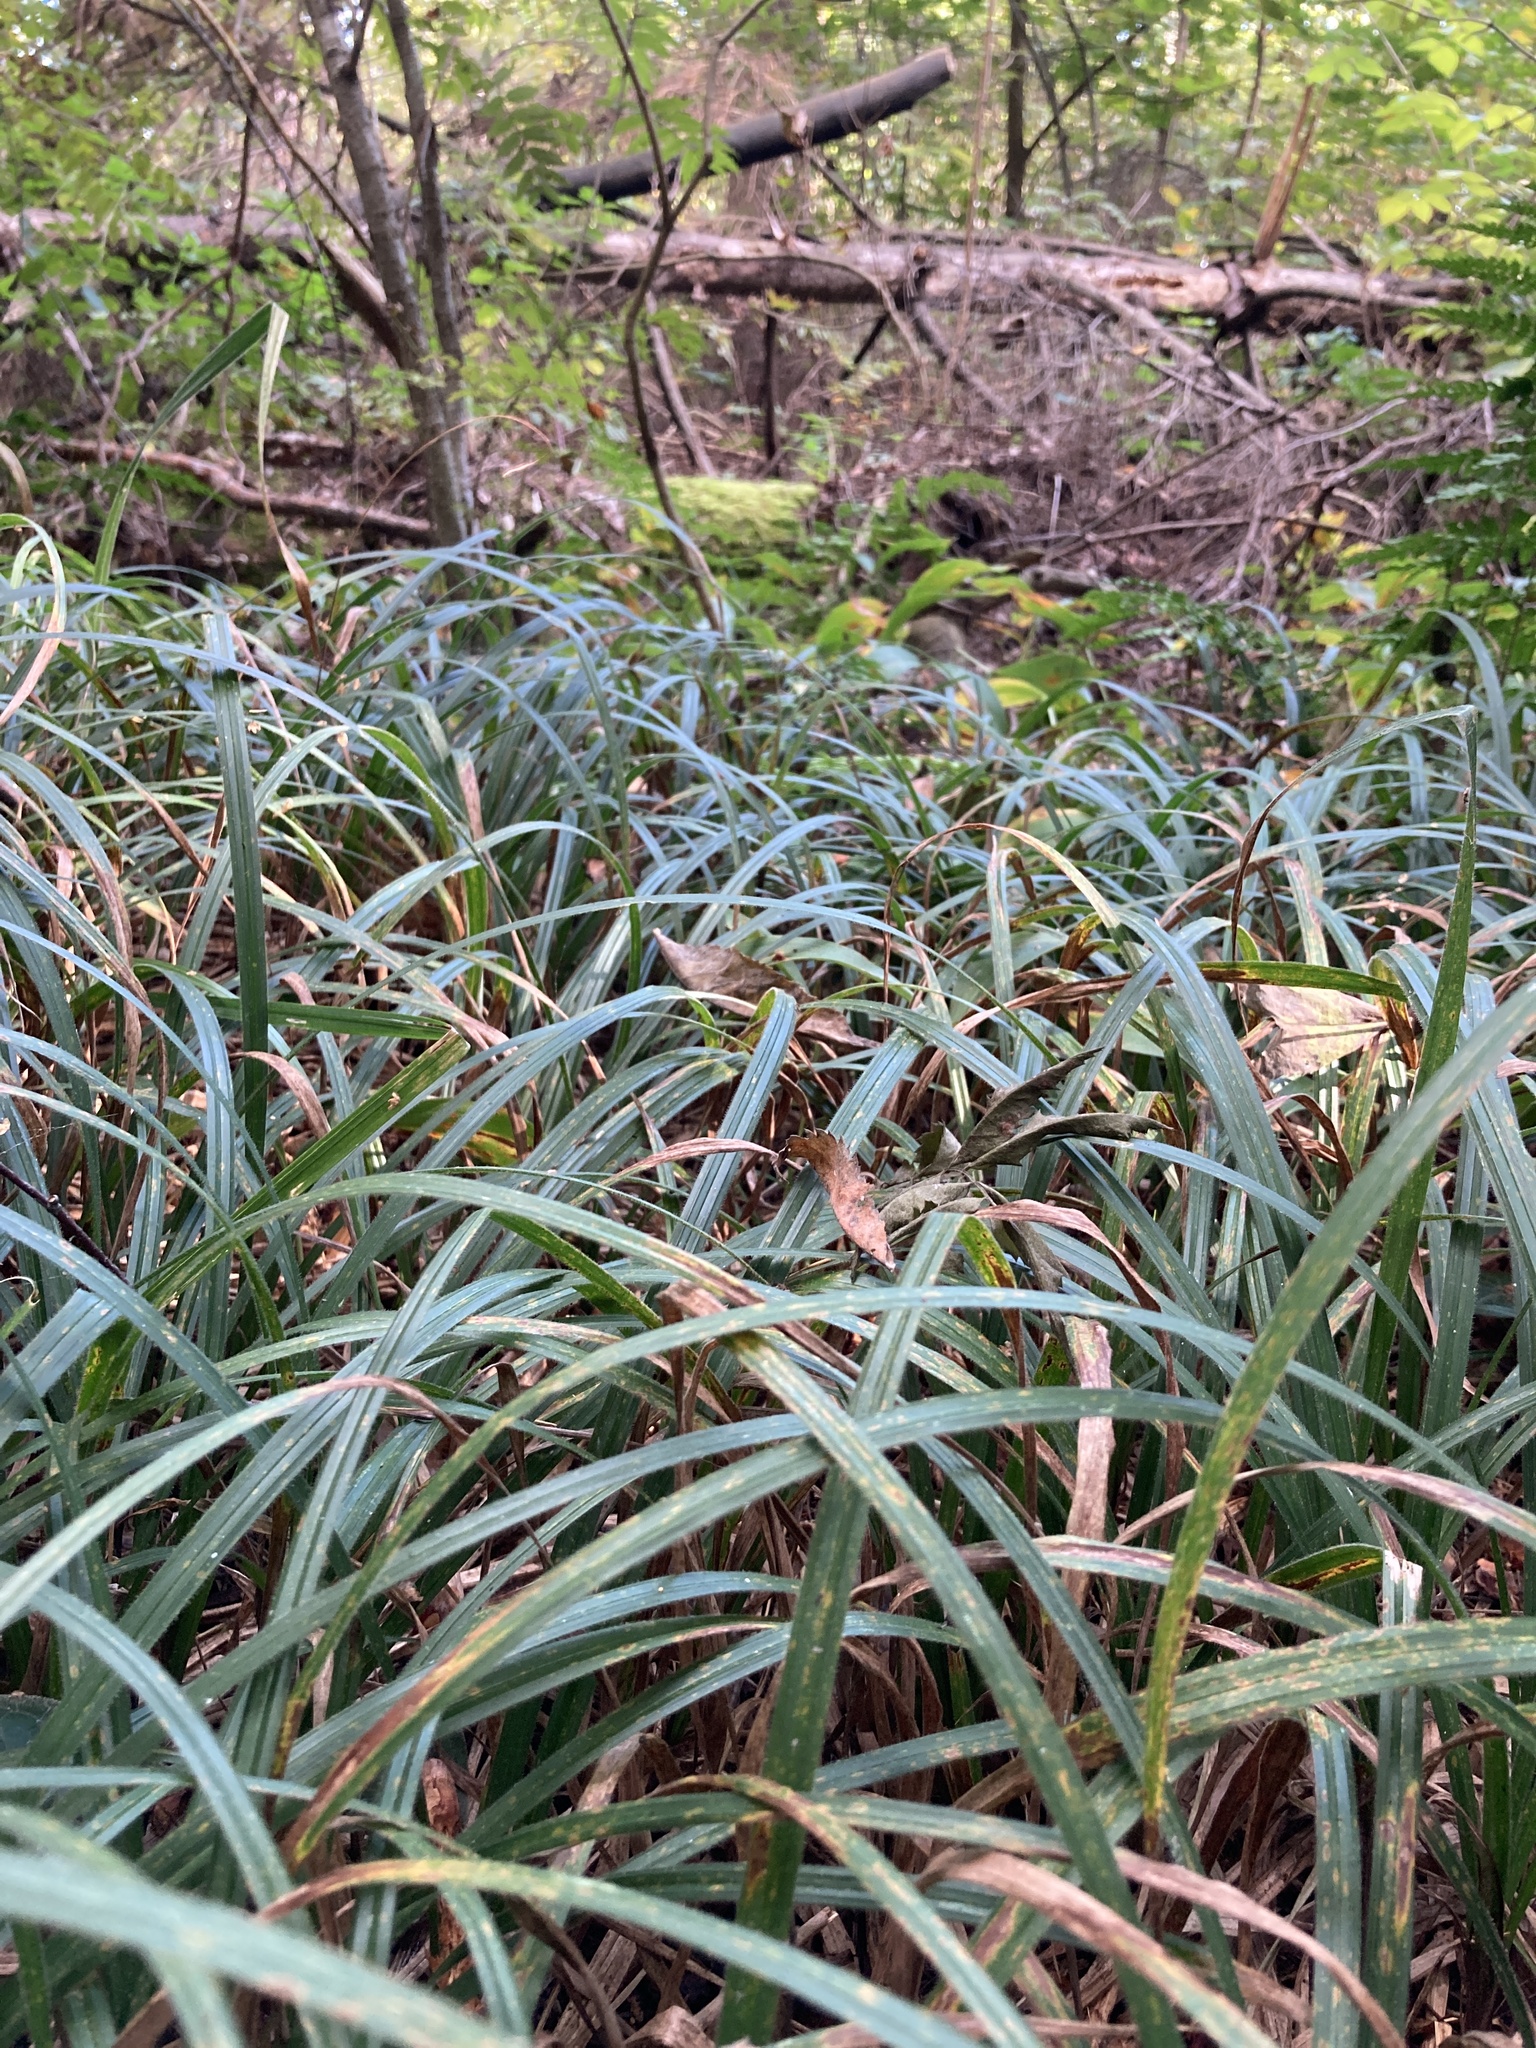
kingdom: Plantae
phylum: Tracheophyta
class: Liliopsida
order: Poales
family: Cyperaceae
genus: Carex
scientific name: Carex pilosa
